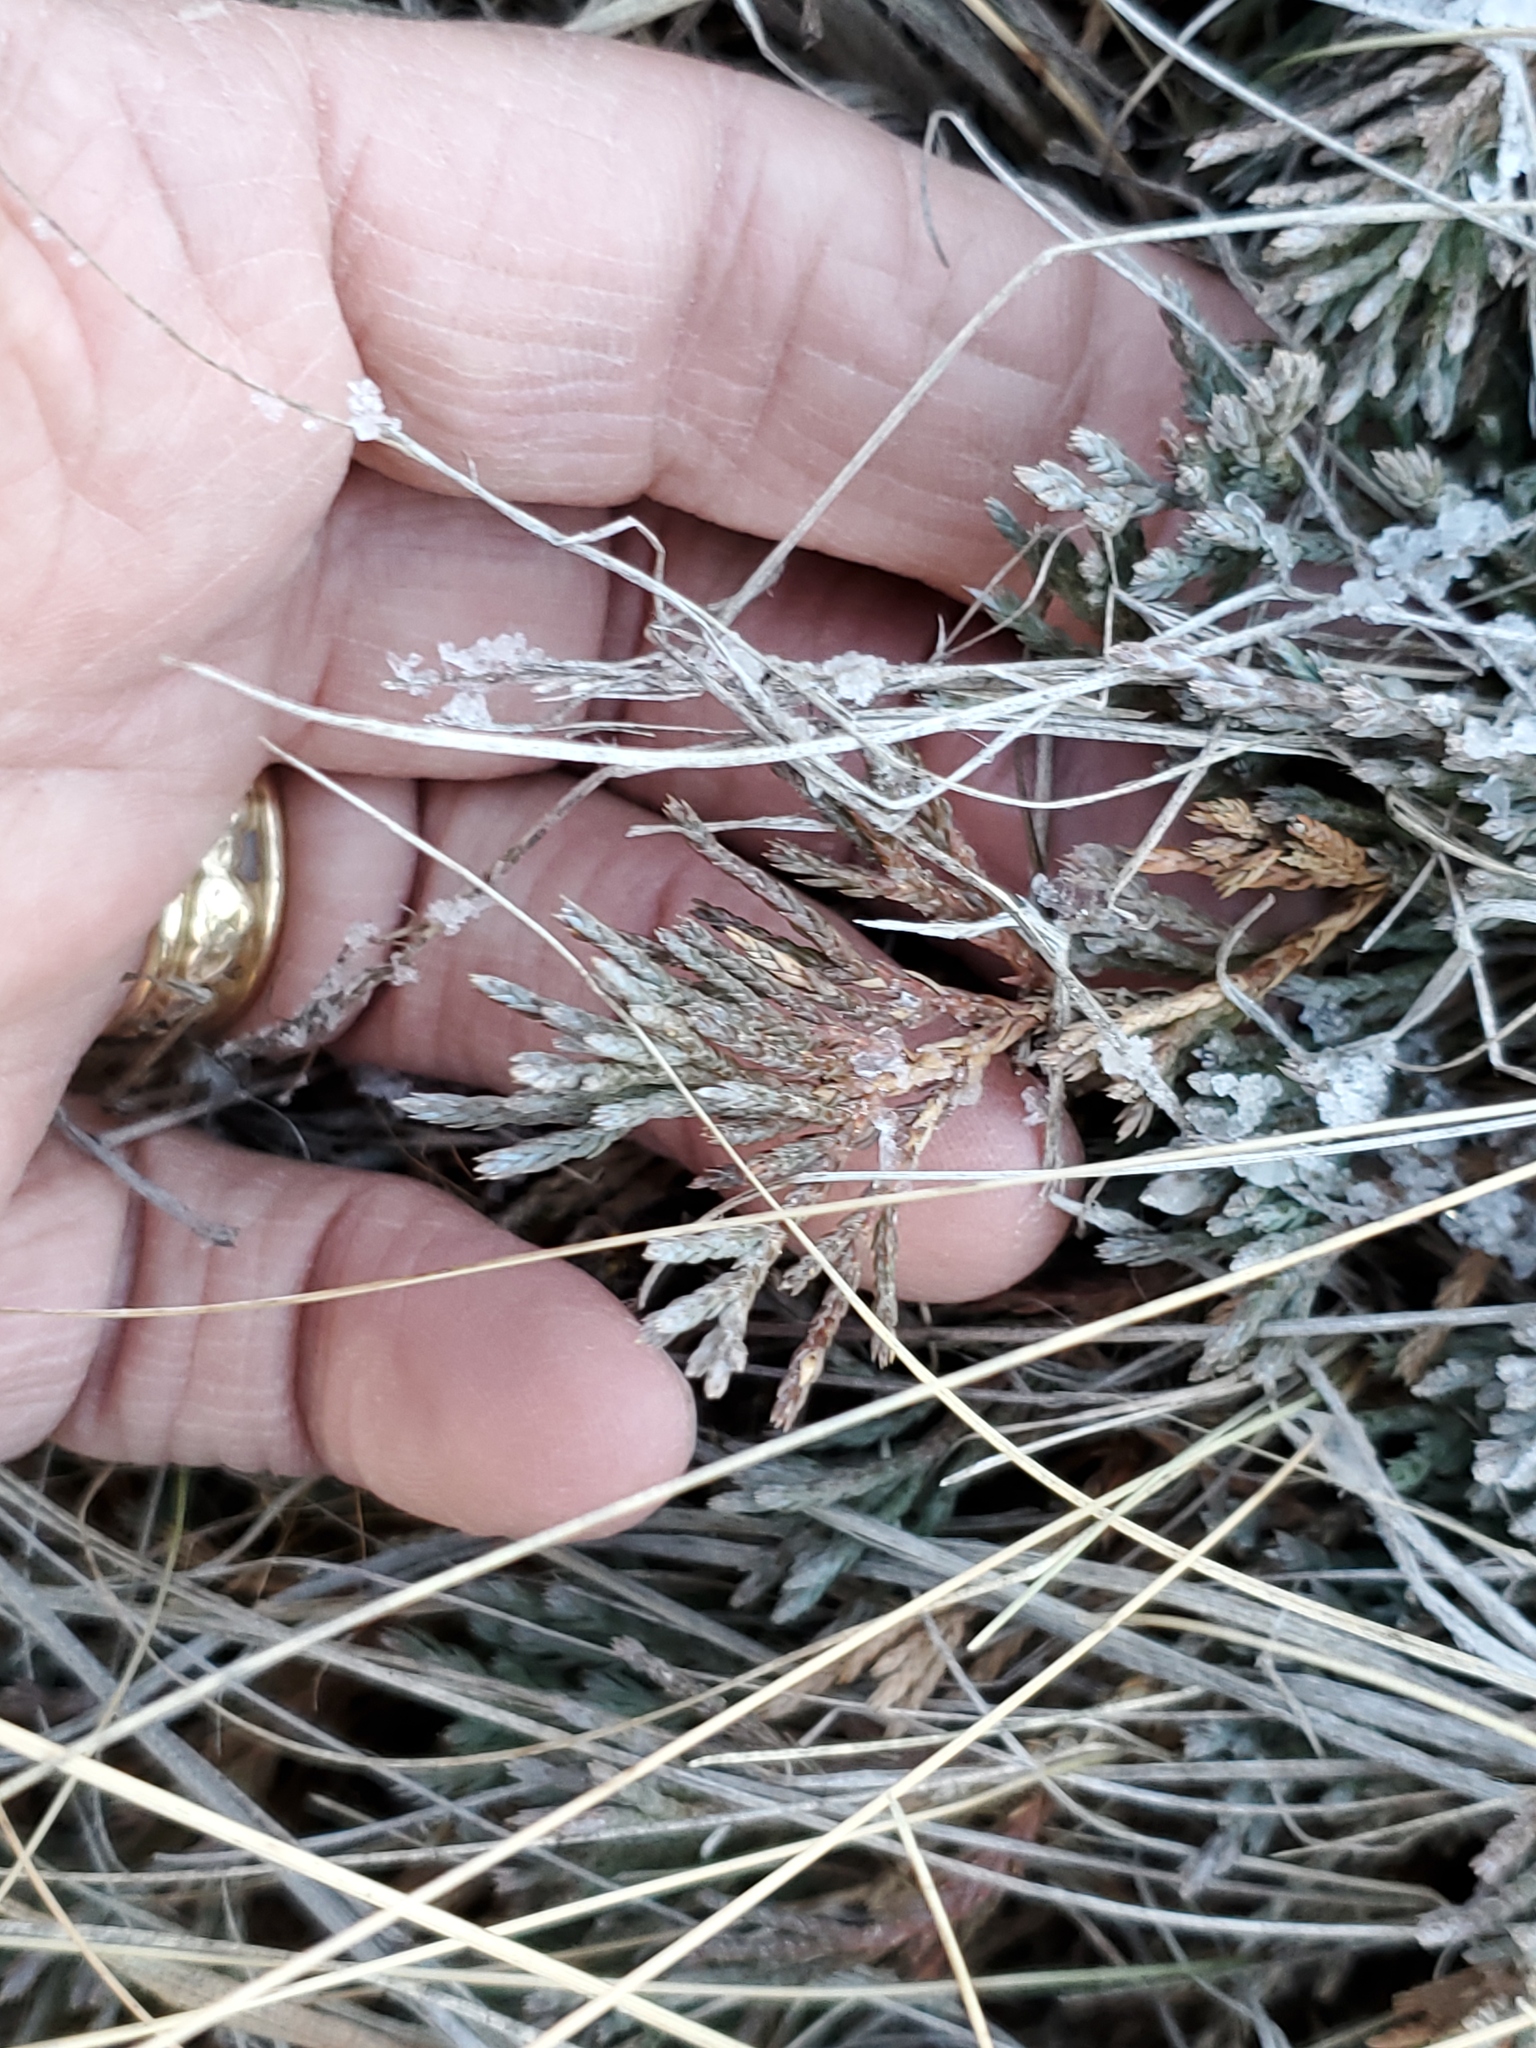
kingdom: Plantae
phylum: Tracheophyta
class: Pinopsida
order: Pinales
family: Cupressaceae
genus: Juniperus
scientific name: Juniperus horizontalis
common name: Creeping juniper
